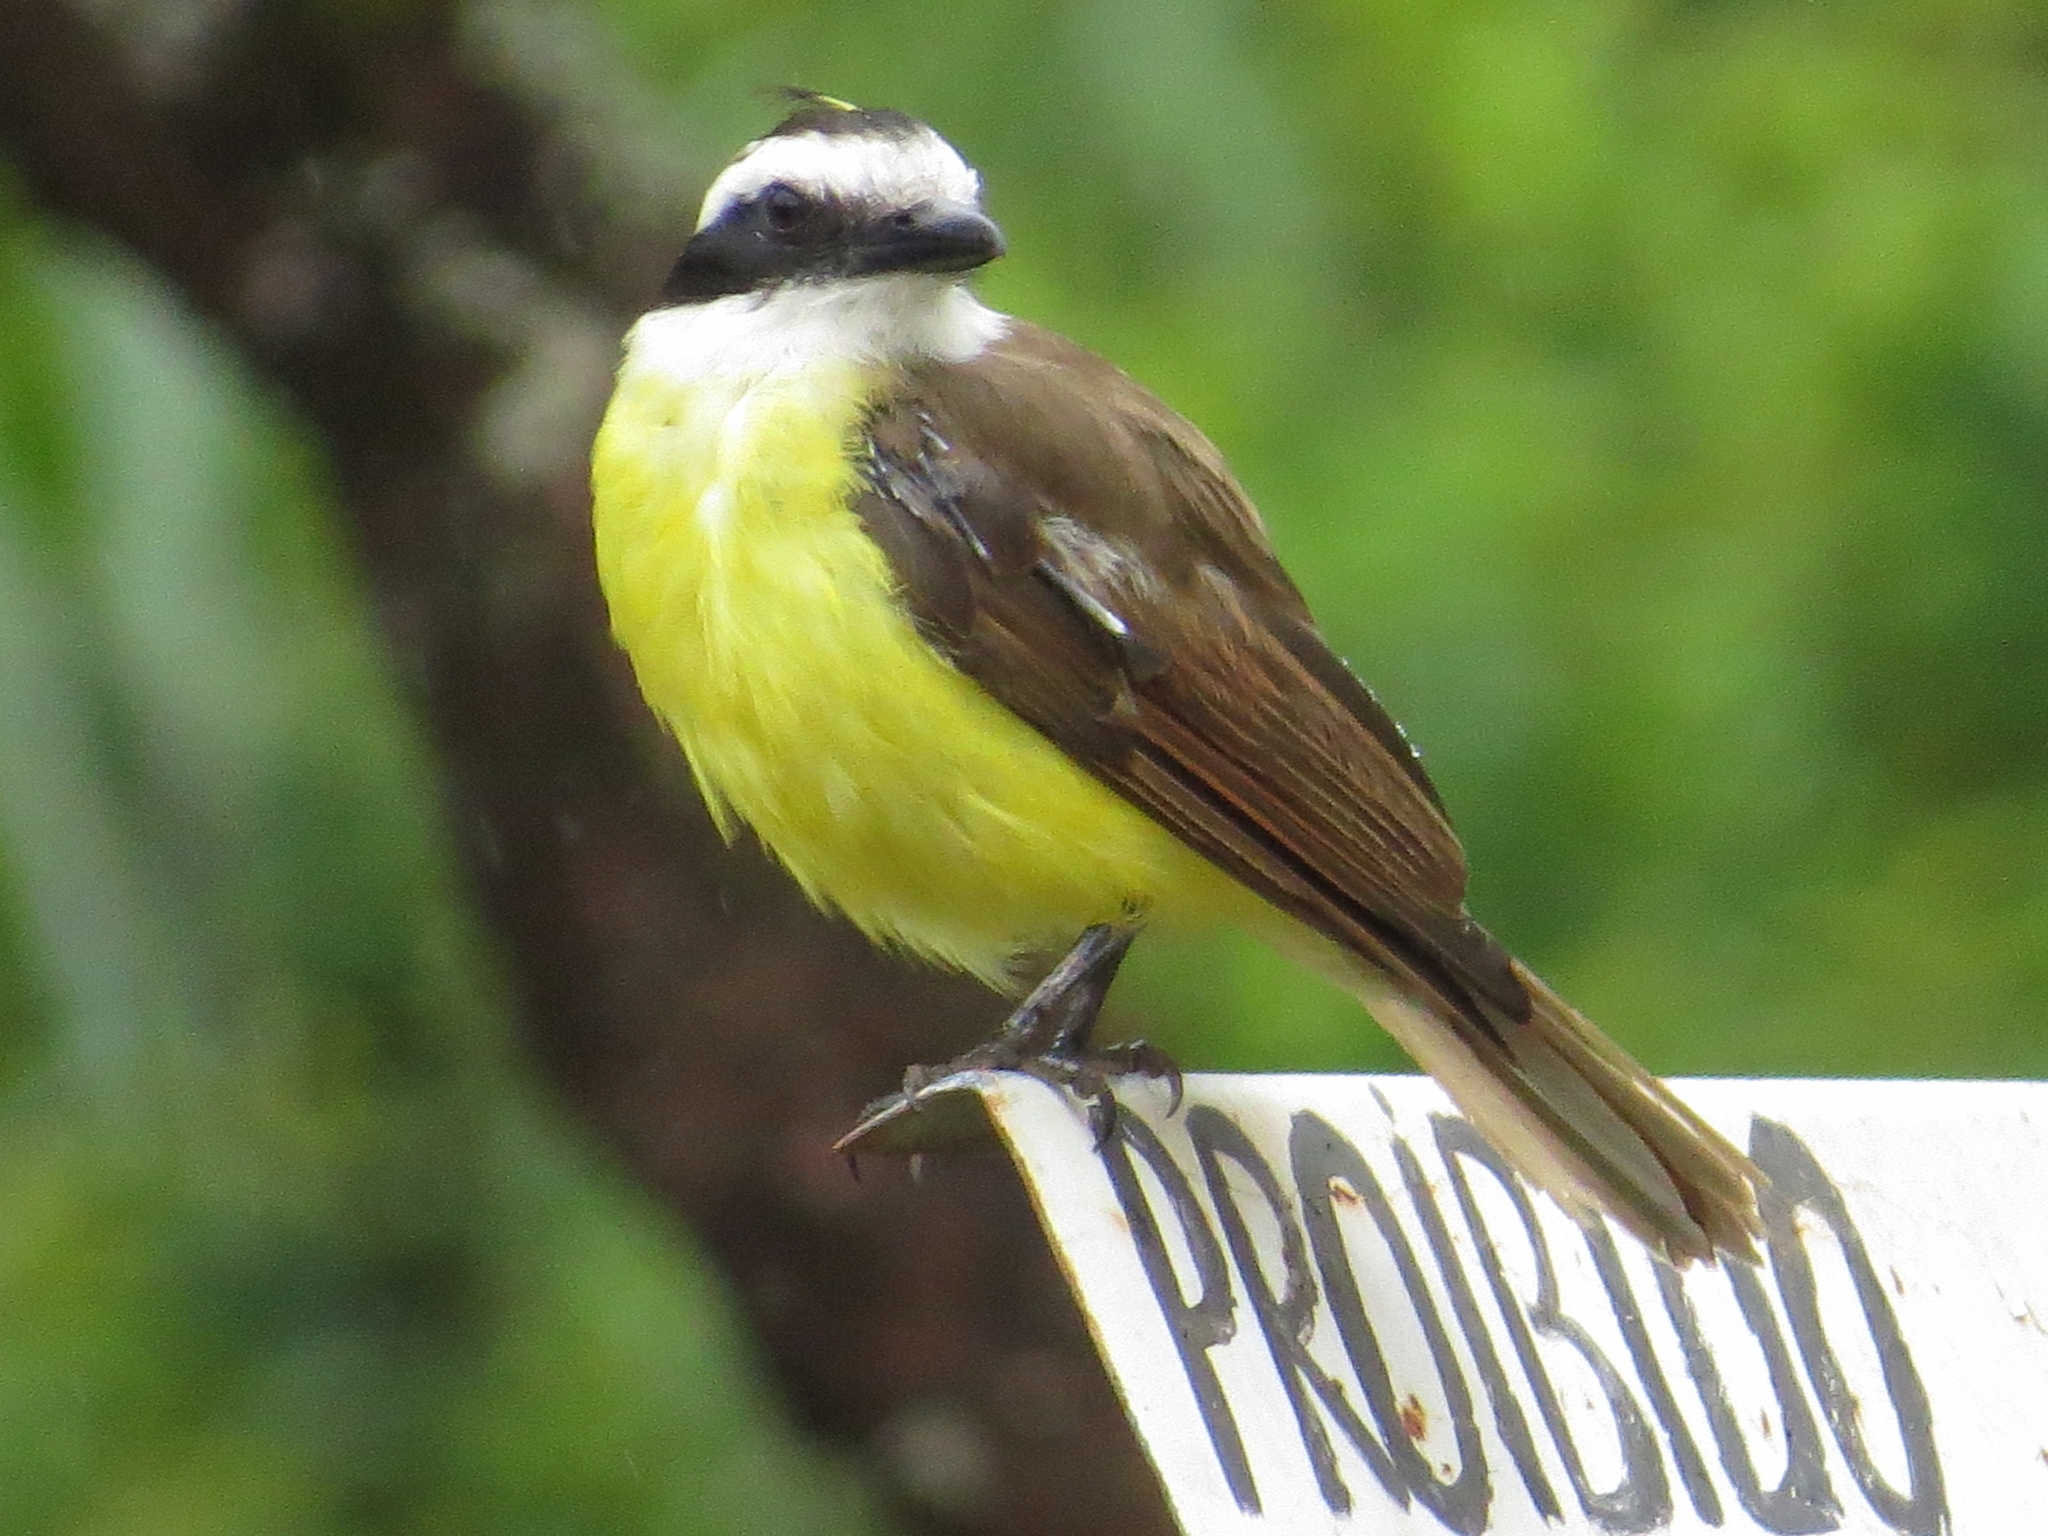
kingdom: Animalia
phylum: Chordata
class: Aves
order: Passeriformes
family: Tyrannidae
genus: Pitangus
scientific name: Pitangus sulphuratus
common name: Great kiskadee
